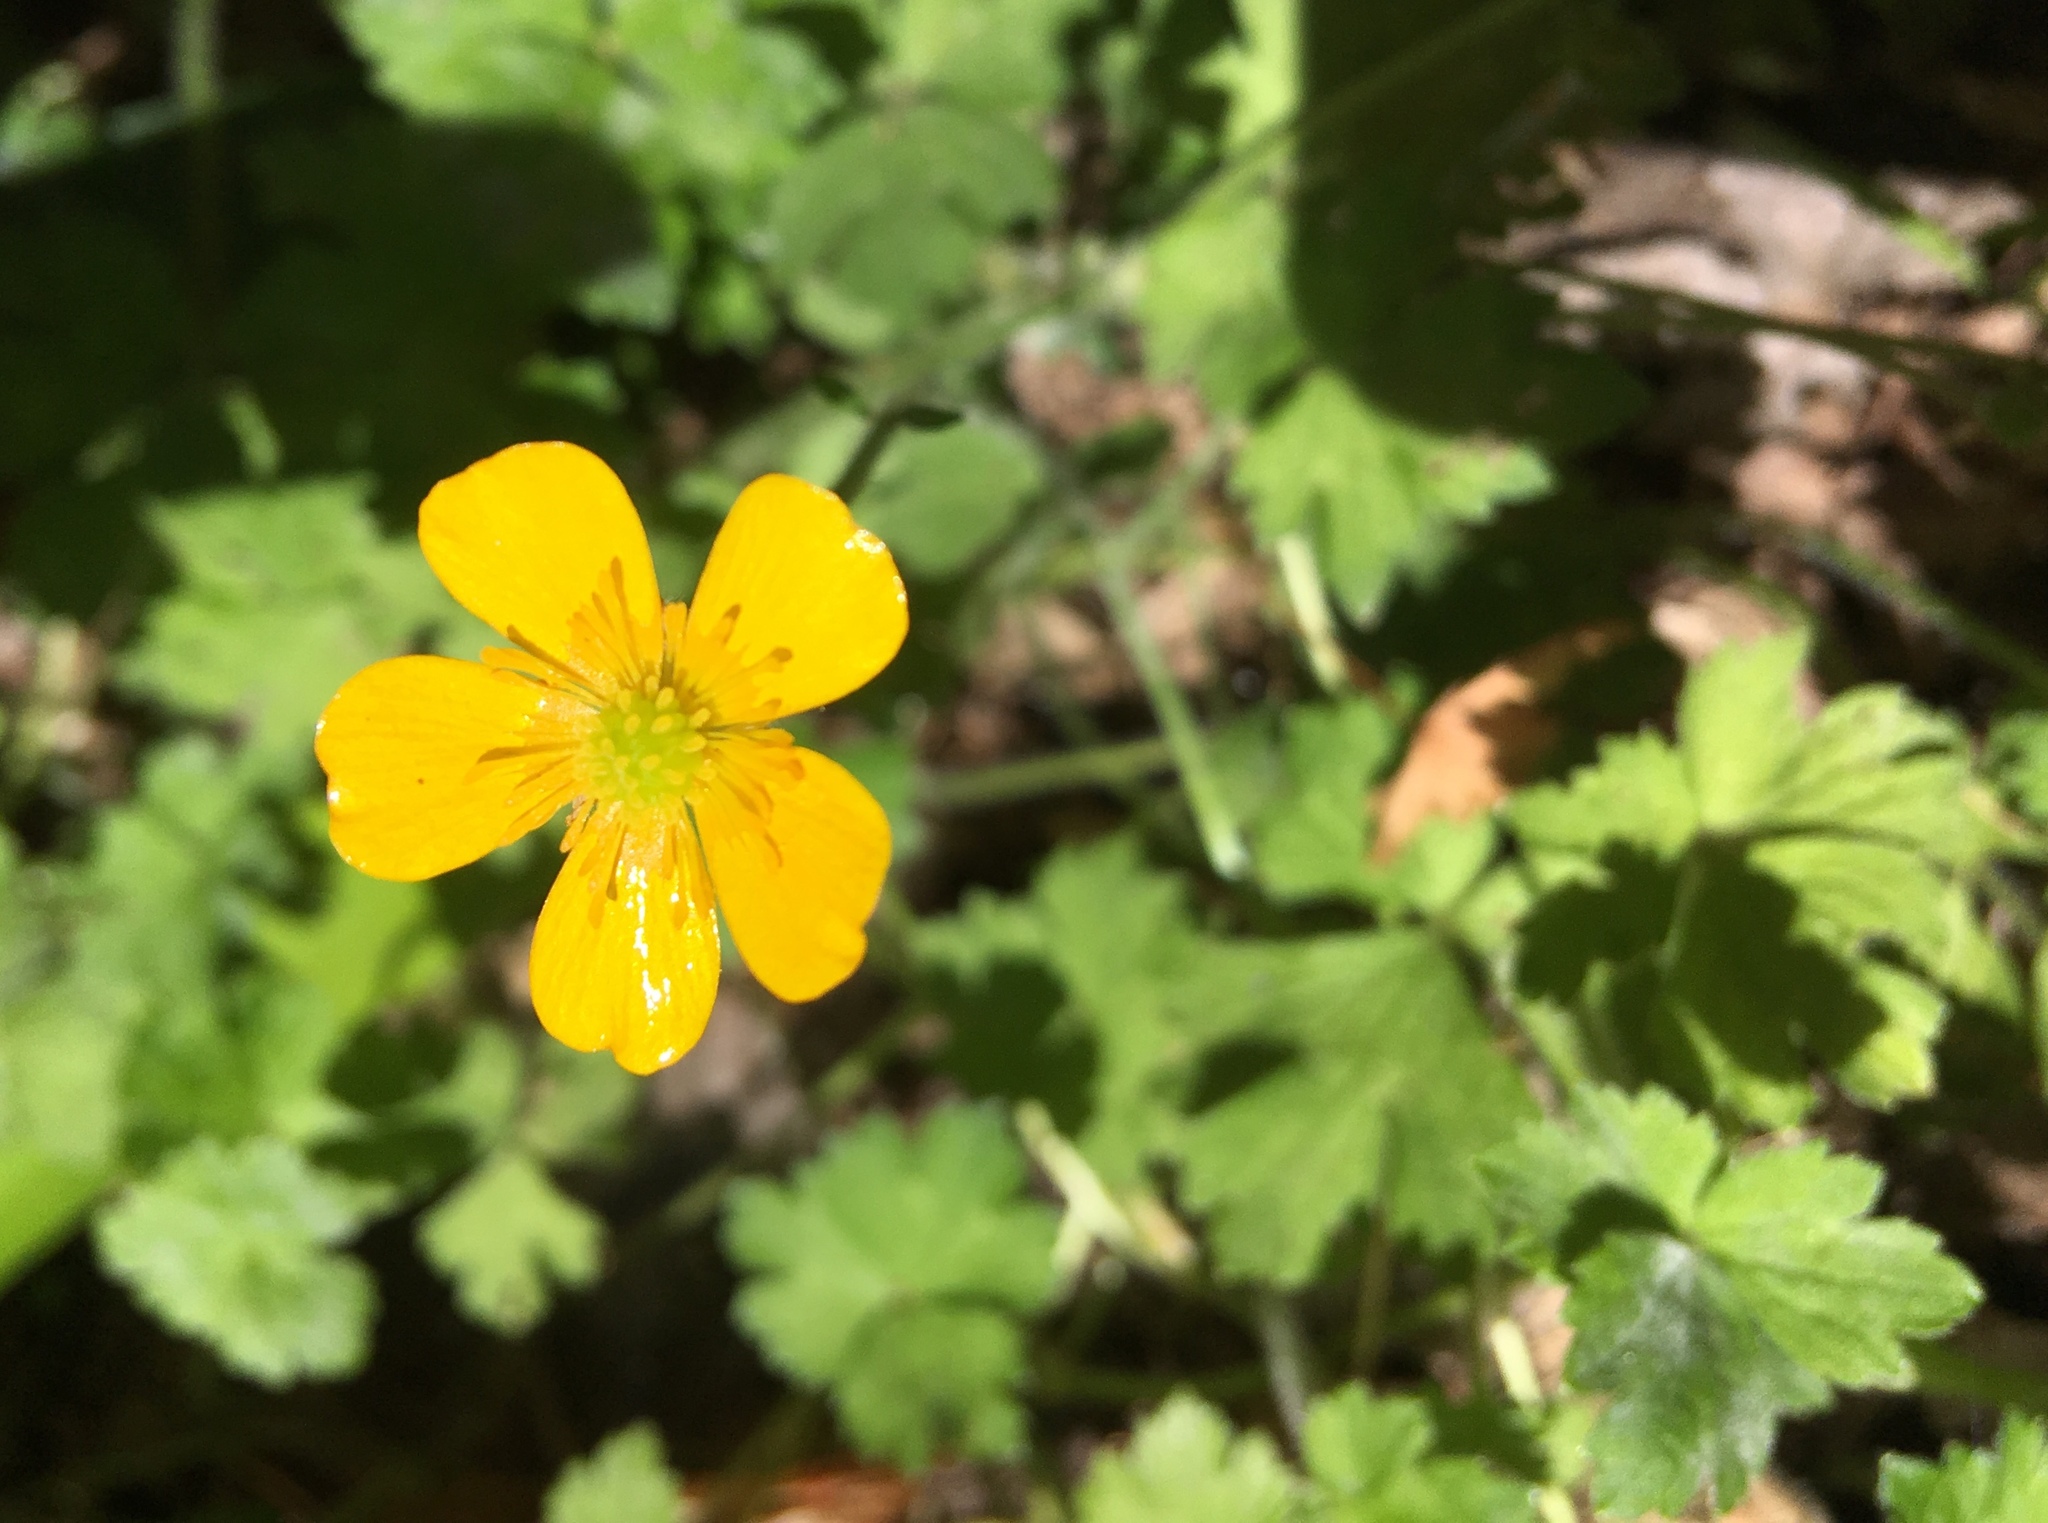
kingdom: Plantae
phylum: Tracheophyta
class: Magnoliopsida
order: Ranunculales
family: Ranunculaceae
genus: Ranunculus
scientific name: Ranunculus repens
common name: Creeping buttercup
